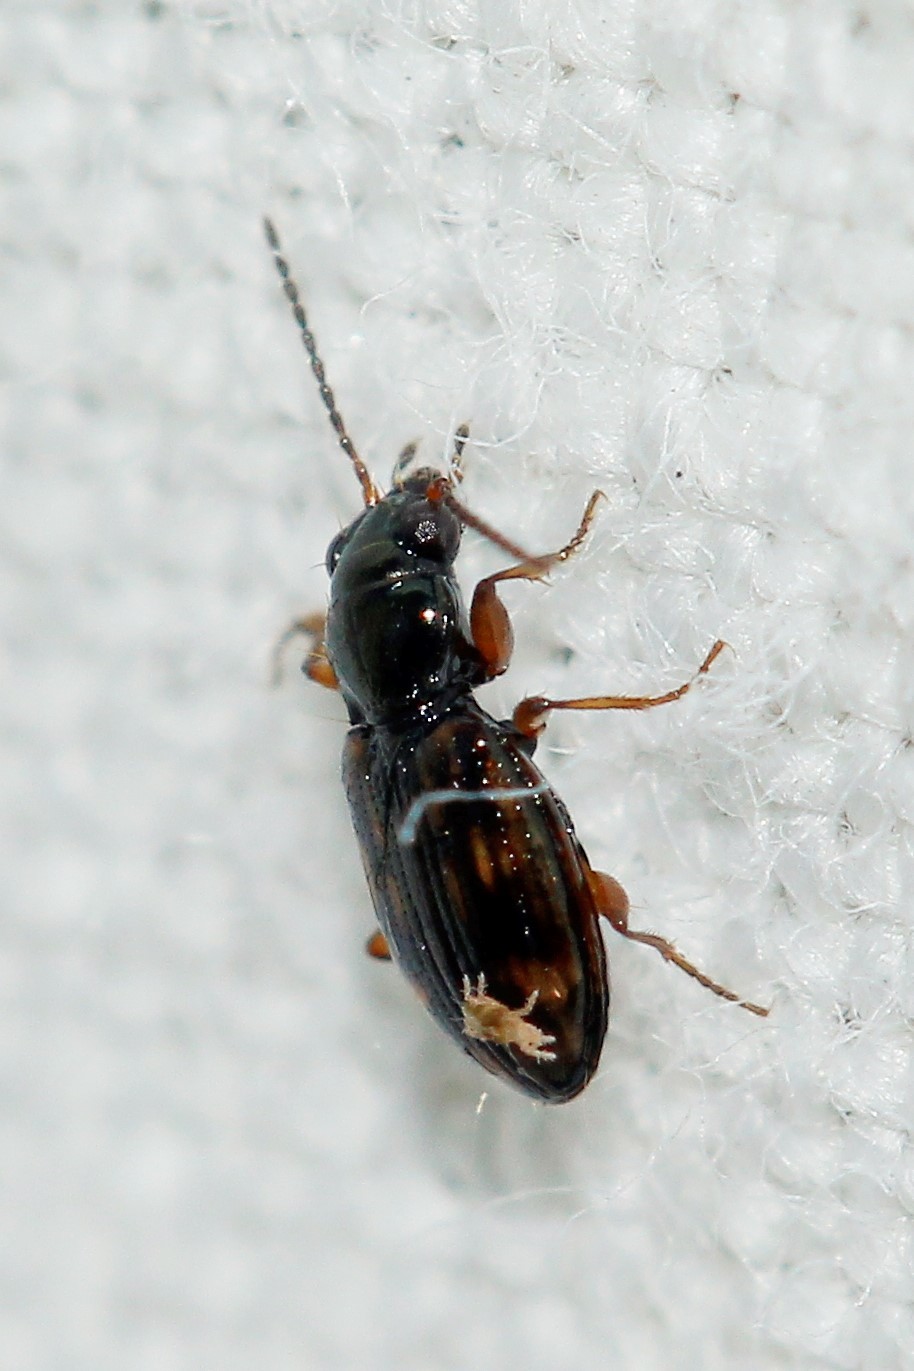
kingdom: Animalia
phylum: Arthropoda
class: Insecta
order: Coleoptera
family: Carabidae
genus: Bembidion
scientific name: Bembidion octomaculatum
